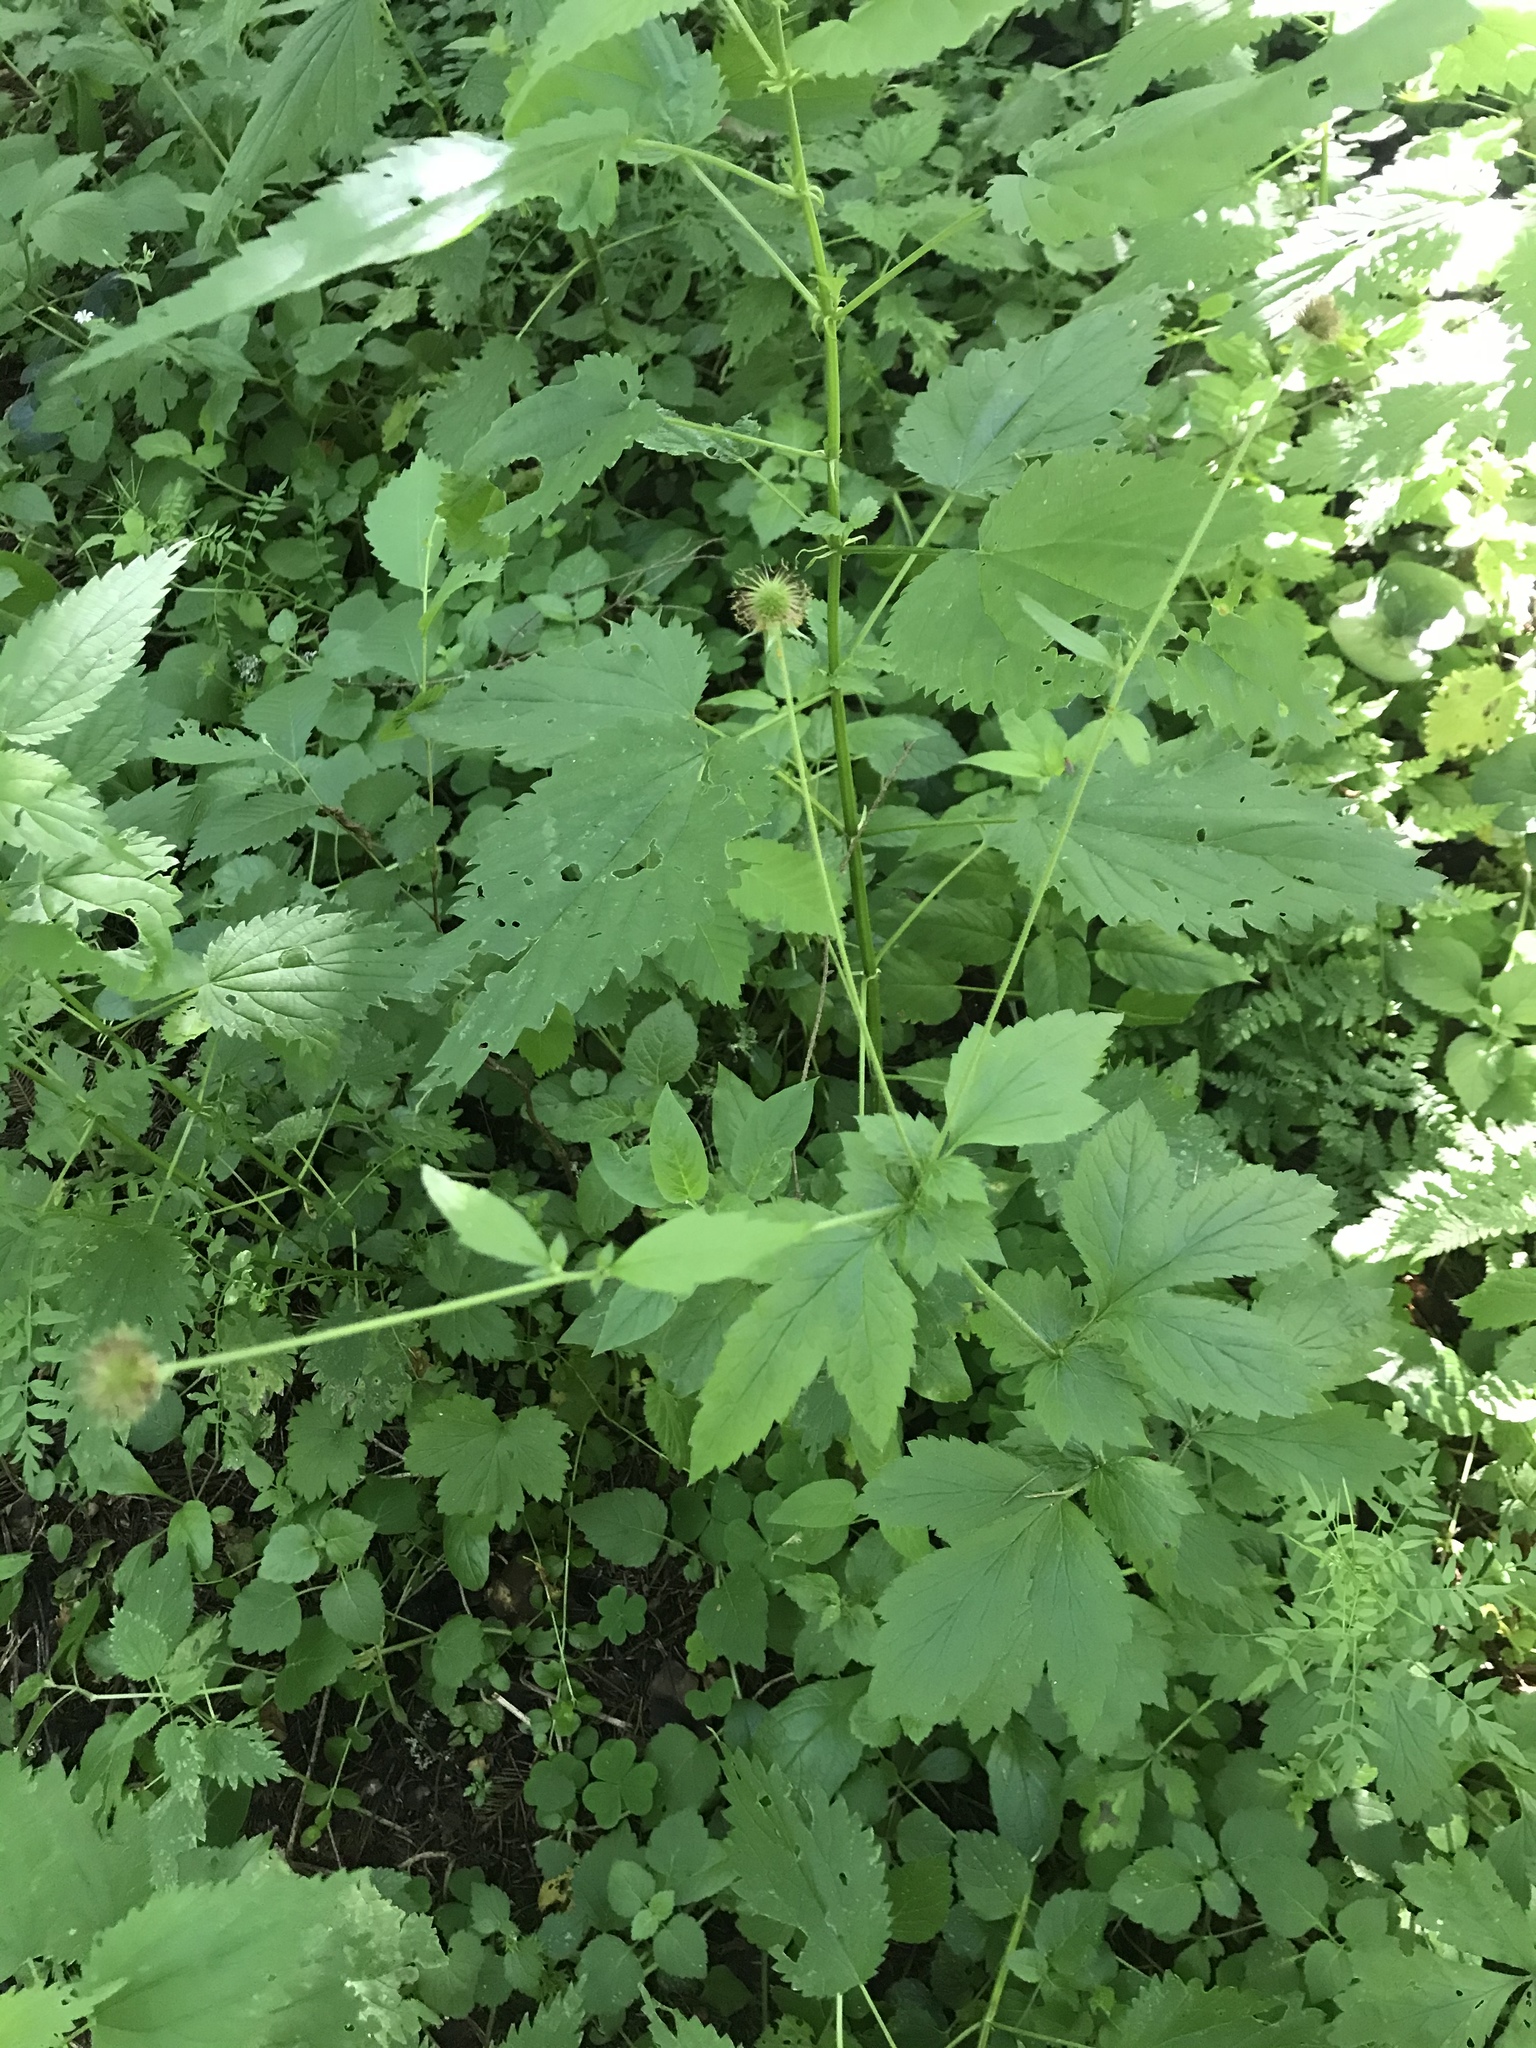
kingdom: Plantae
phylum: Tracheophyta
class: Magnoliopsida
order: Rosales
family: Rosaceae
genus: Geum
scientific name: Geum urbanum
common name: Wood avens
